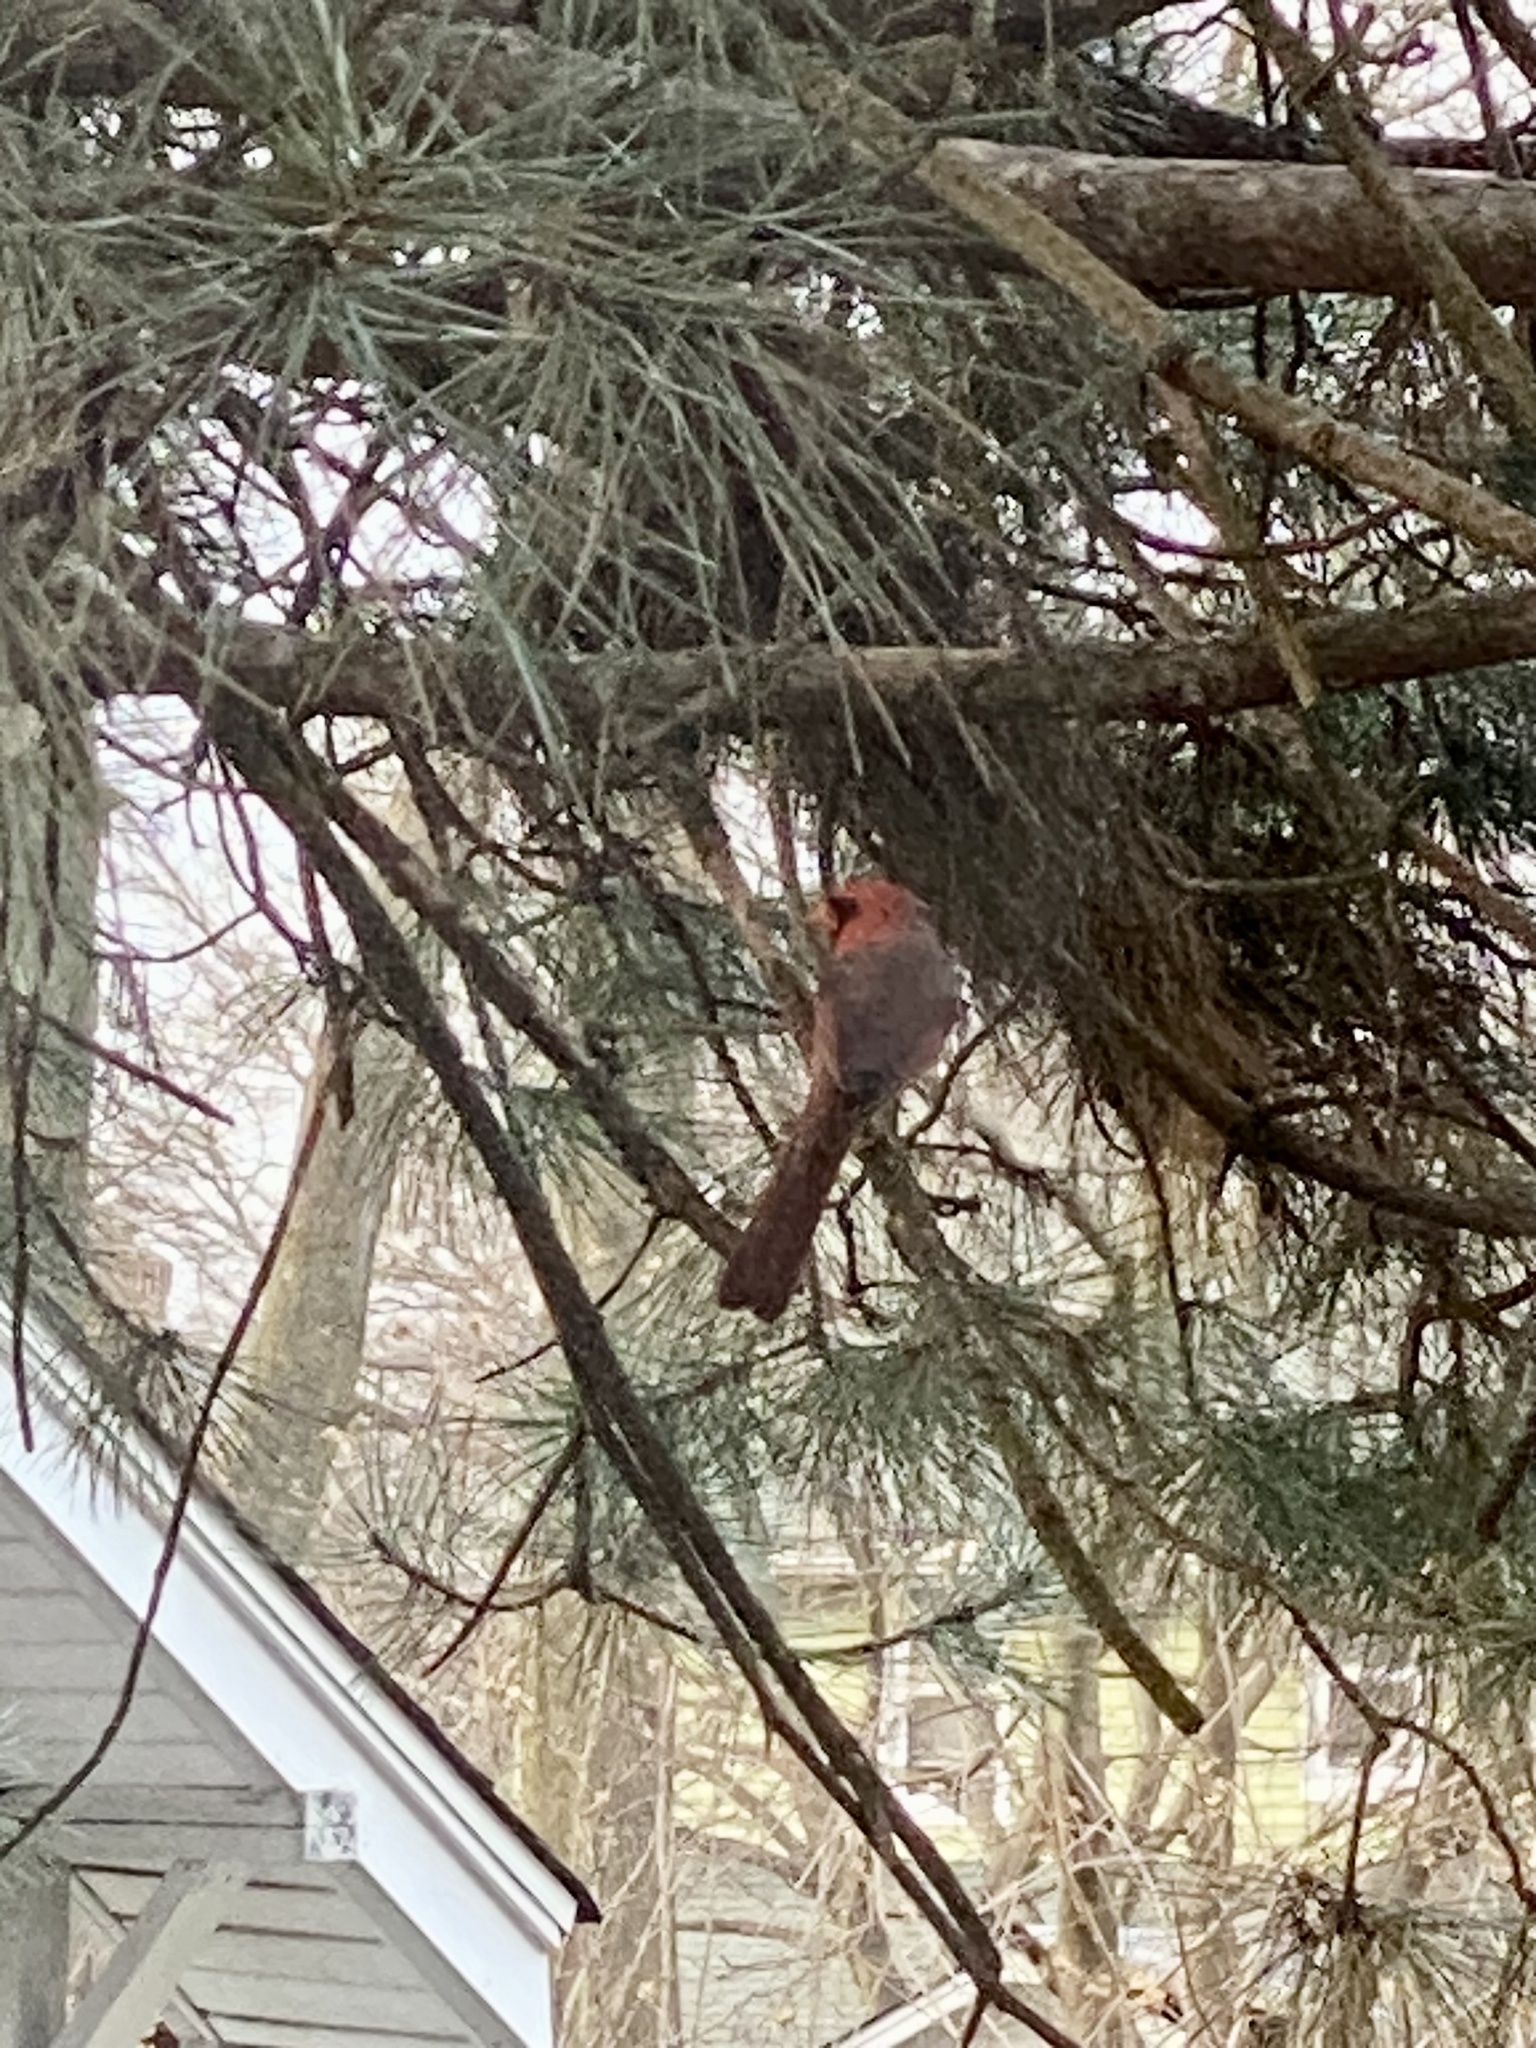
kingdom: Animalia
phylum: Chordata
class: Aves
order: Passeriformes
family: Cardinalidae
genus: Cardinalis
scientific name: Cardinalis cardinalis
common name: Northern cardinal
